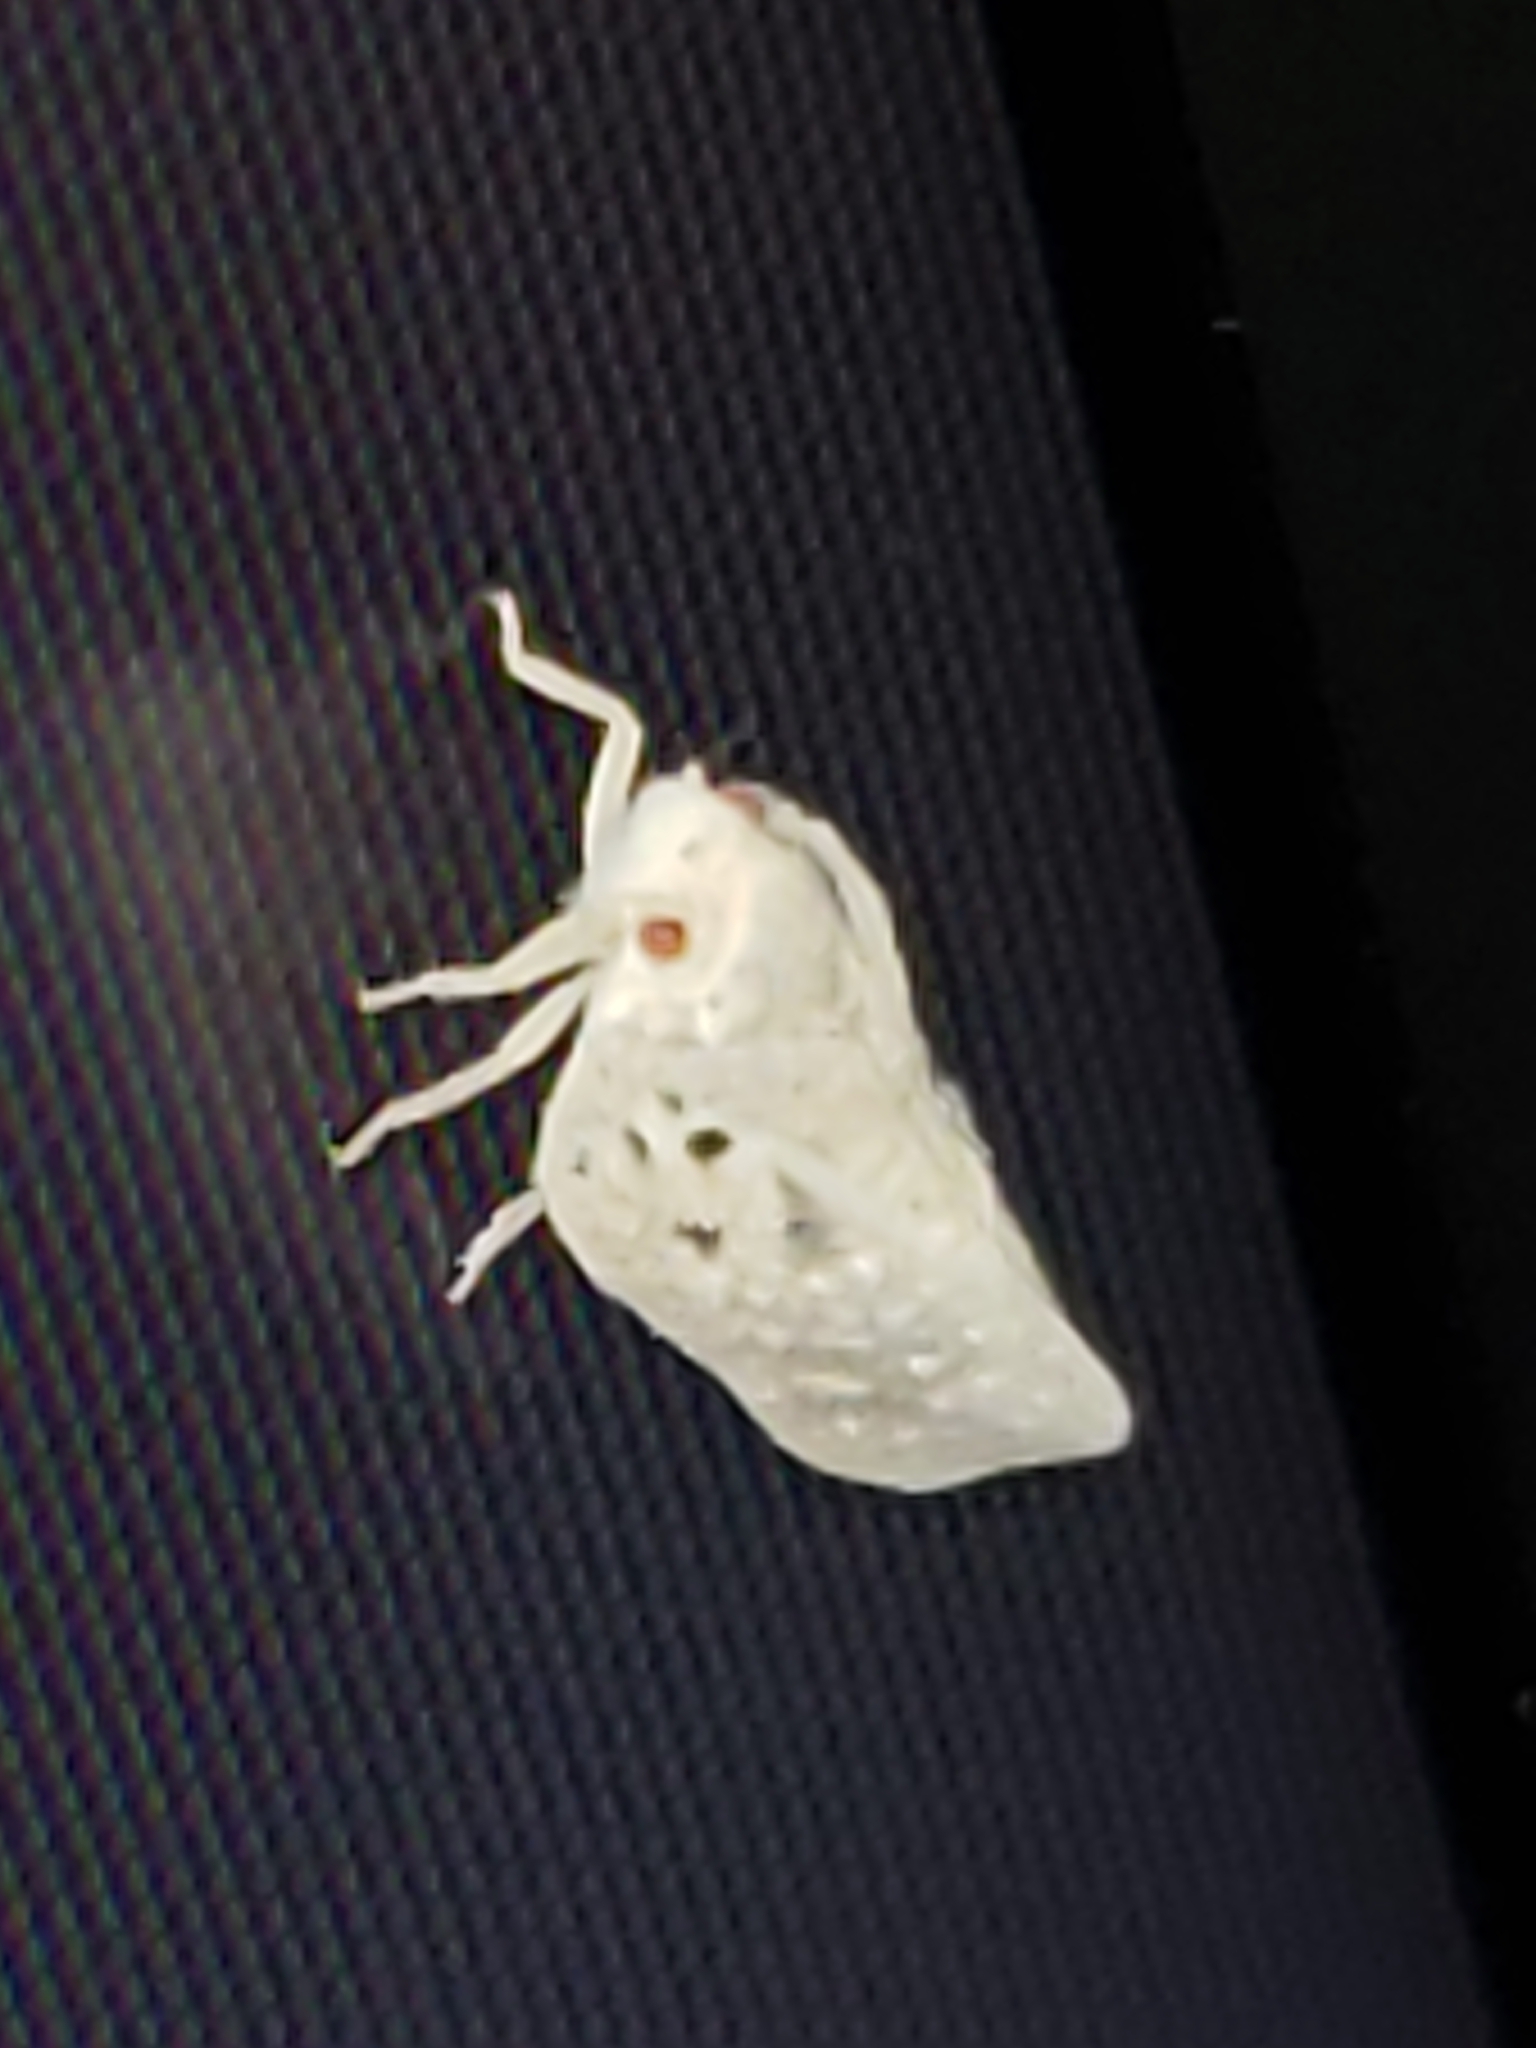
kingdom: Animalia
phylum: Arthropoda
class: Insecta
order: Hemiptera
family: Flatidae
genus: Metcalfa
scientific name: Metcalfa pruinosa
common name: Citrus flatid planthopper
